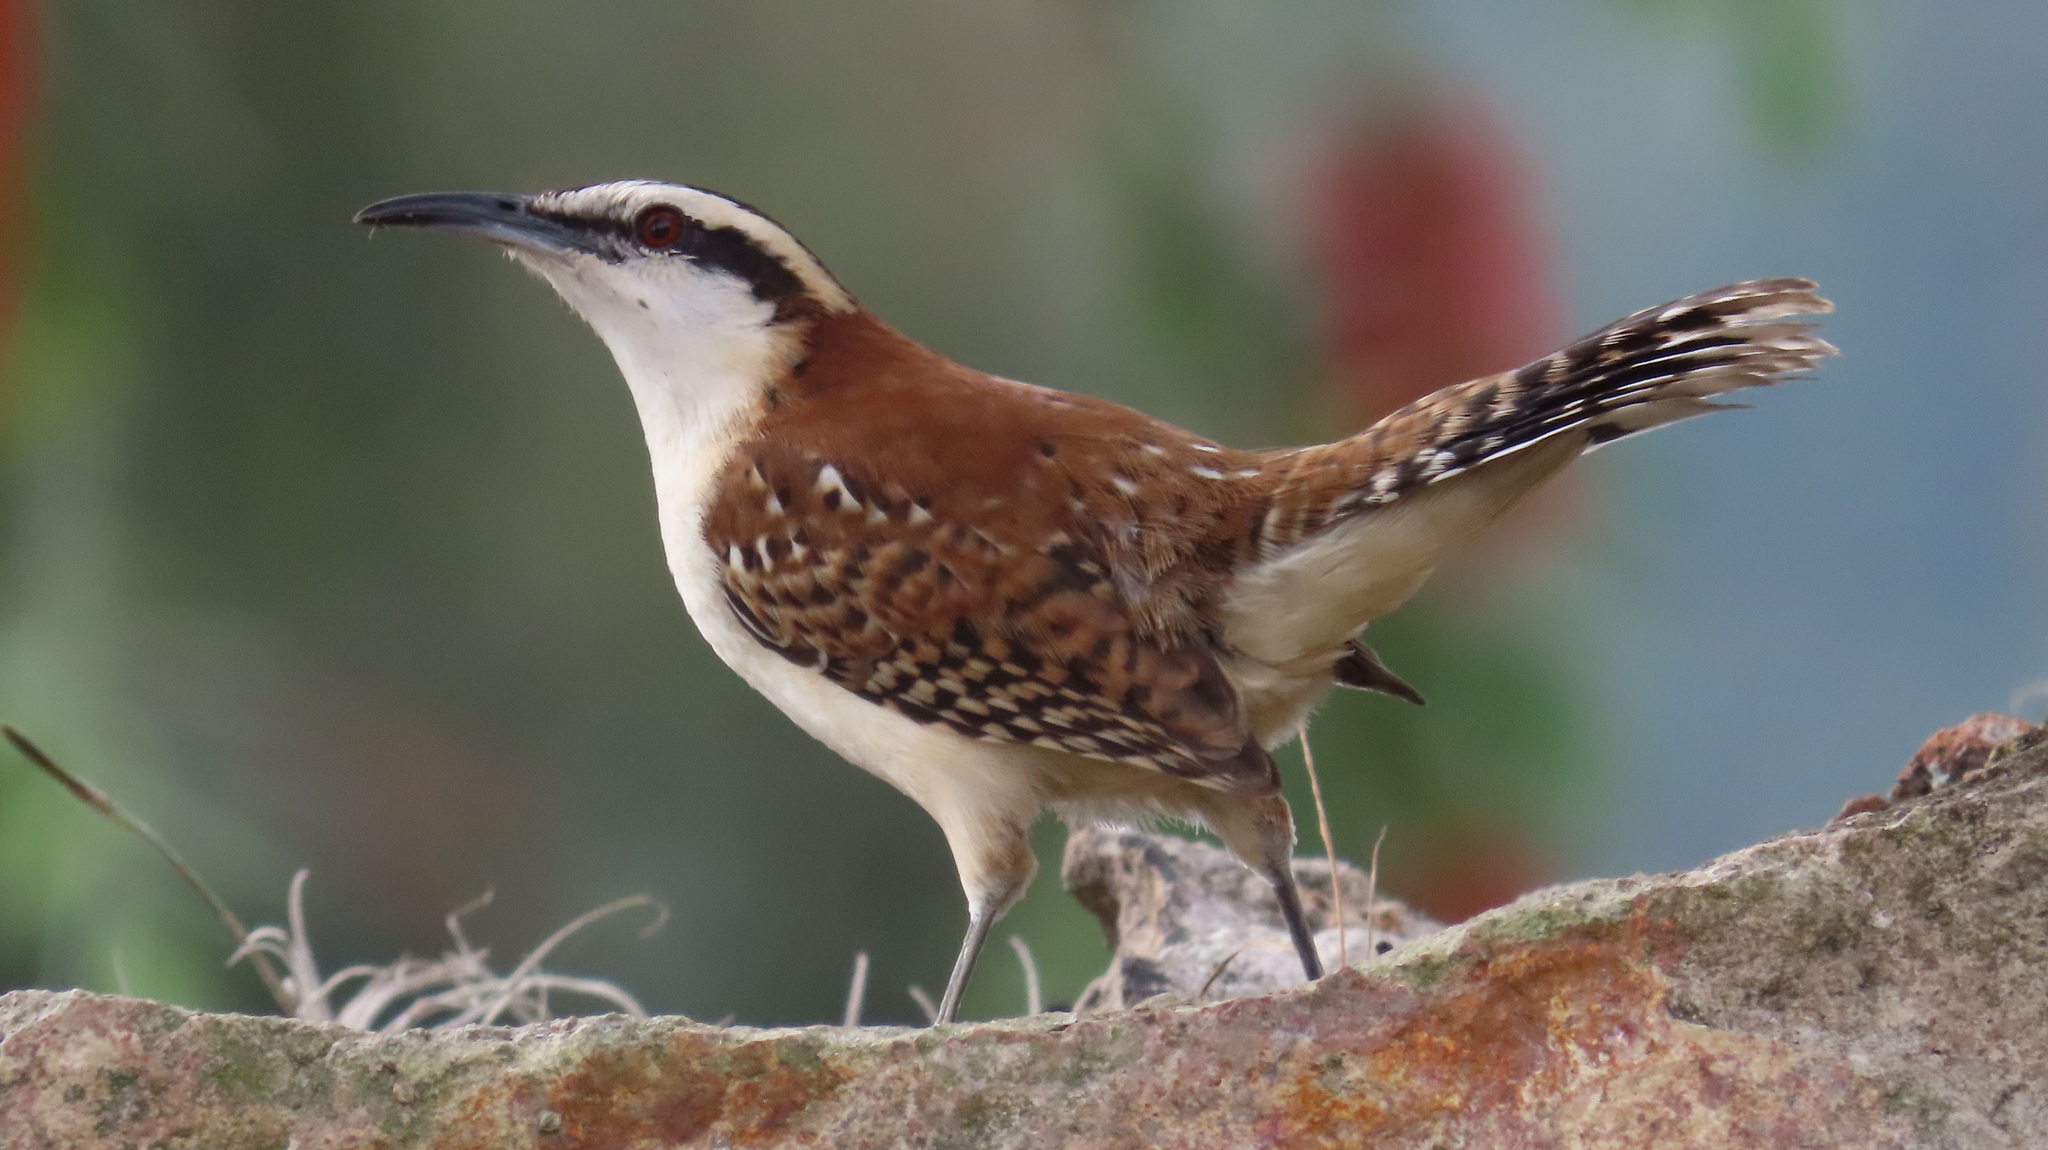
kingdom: Animalia
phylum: Chordata
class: Aves
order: Passeriformes
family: Troglodytidae
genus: Campylorhynchus
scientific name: Campylorhynchus rufinucha
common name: Rufous-naped wren
